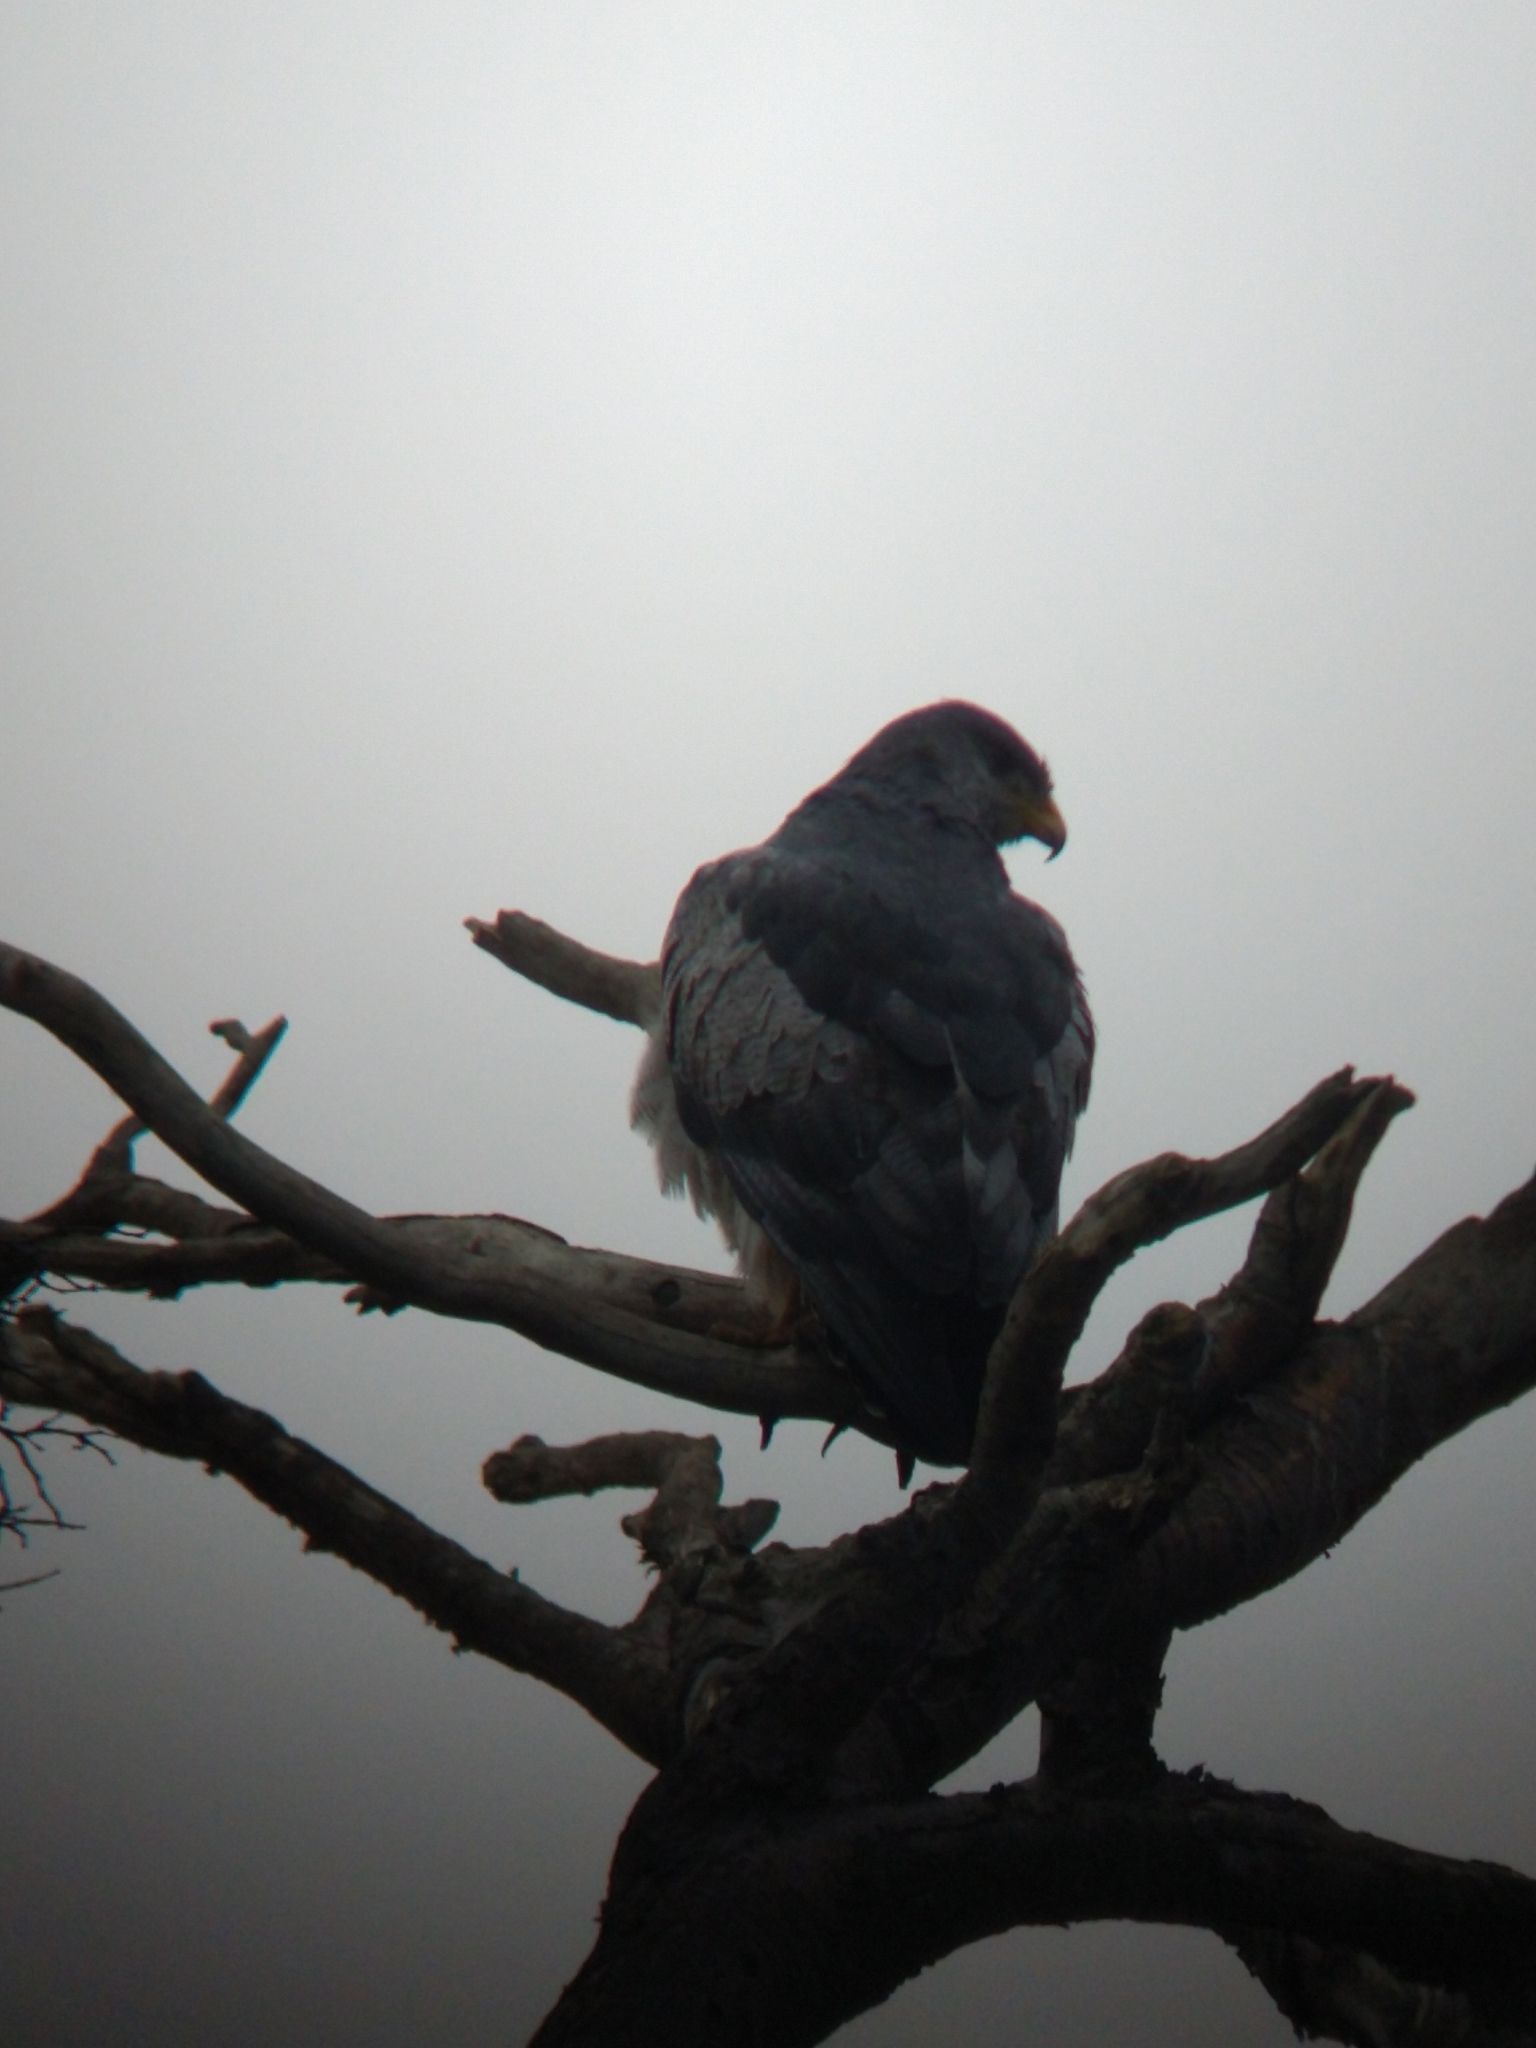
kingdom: Animalia
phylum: Chordata
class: Aves
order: Accipitriformes
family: Accipitridae
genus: Geranoaetus
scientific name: Geranoaetus melanoleucus
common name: Black-chested buzzard-eagle
